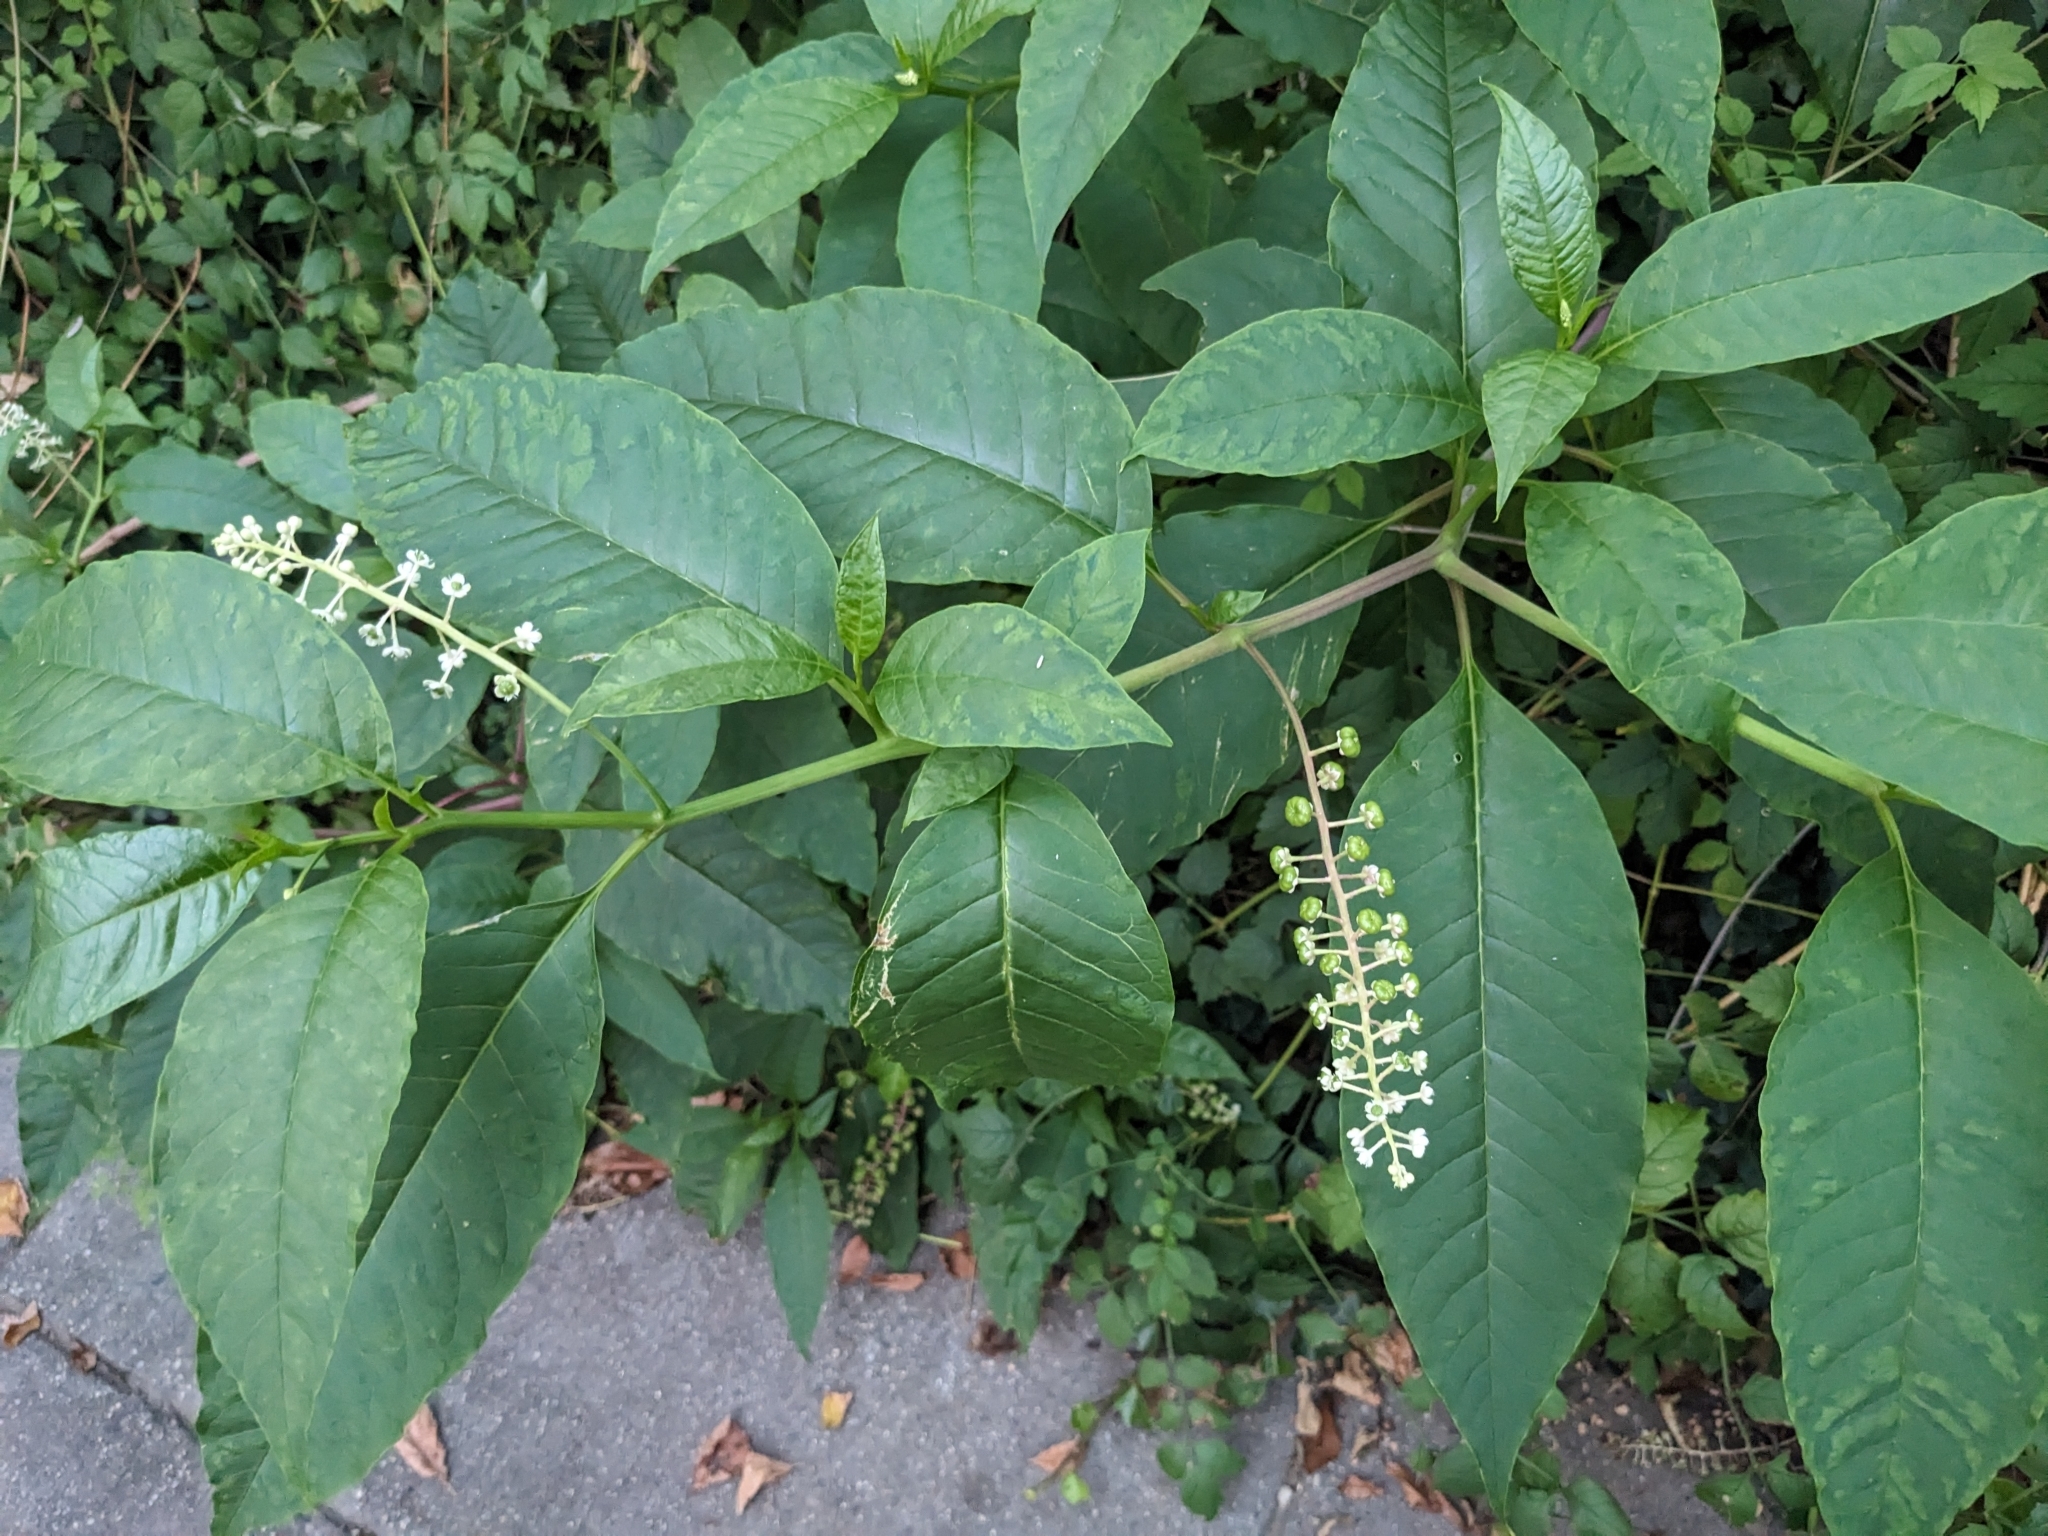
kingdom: Plantae
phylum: Tracheophyta
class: Magnoliopsida
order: Caryophyllales
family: Phytolaccaceae
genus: Phytolacca
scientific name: Phytolacca americana
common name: American pokeweed
